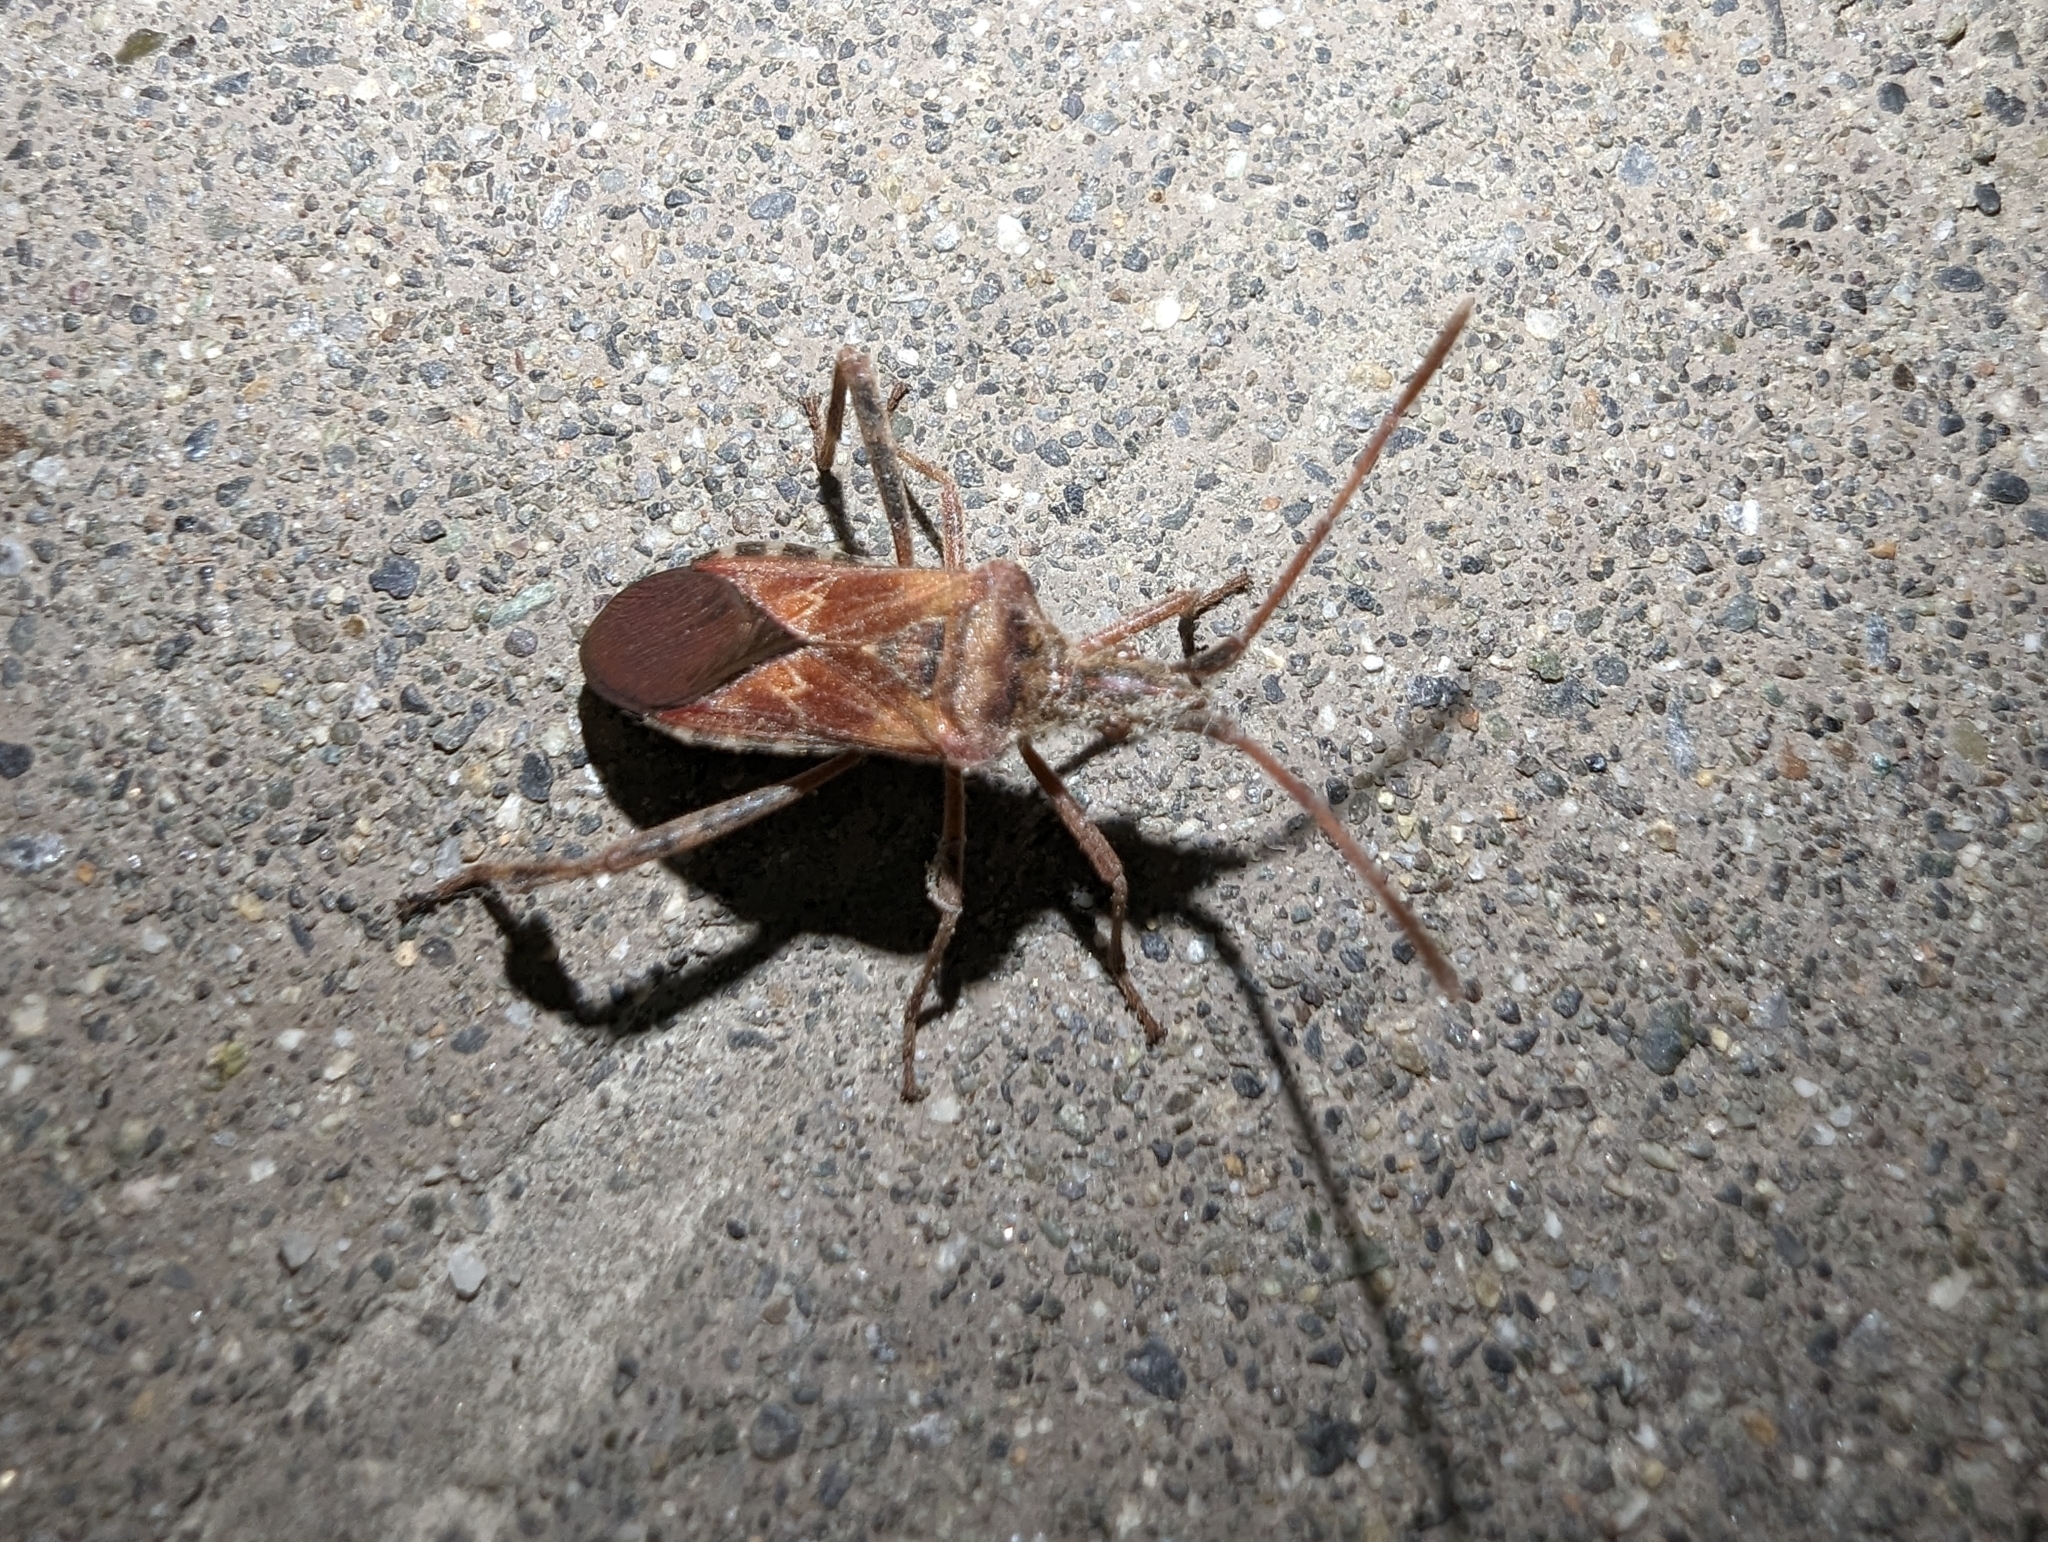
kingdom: Animalia
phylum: Arthropoda
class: Insecta
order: Hemiptera
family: Coreidae
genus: Leptoglossus
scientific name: Leptoglossus occidentalis
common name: Western conifer-seed bug
